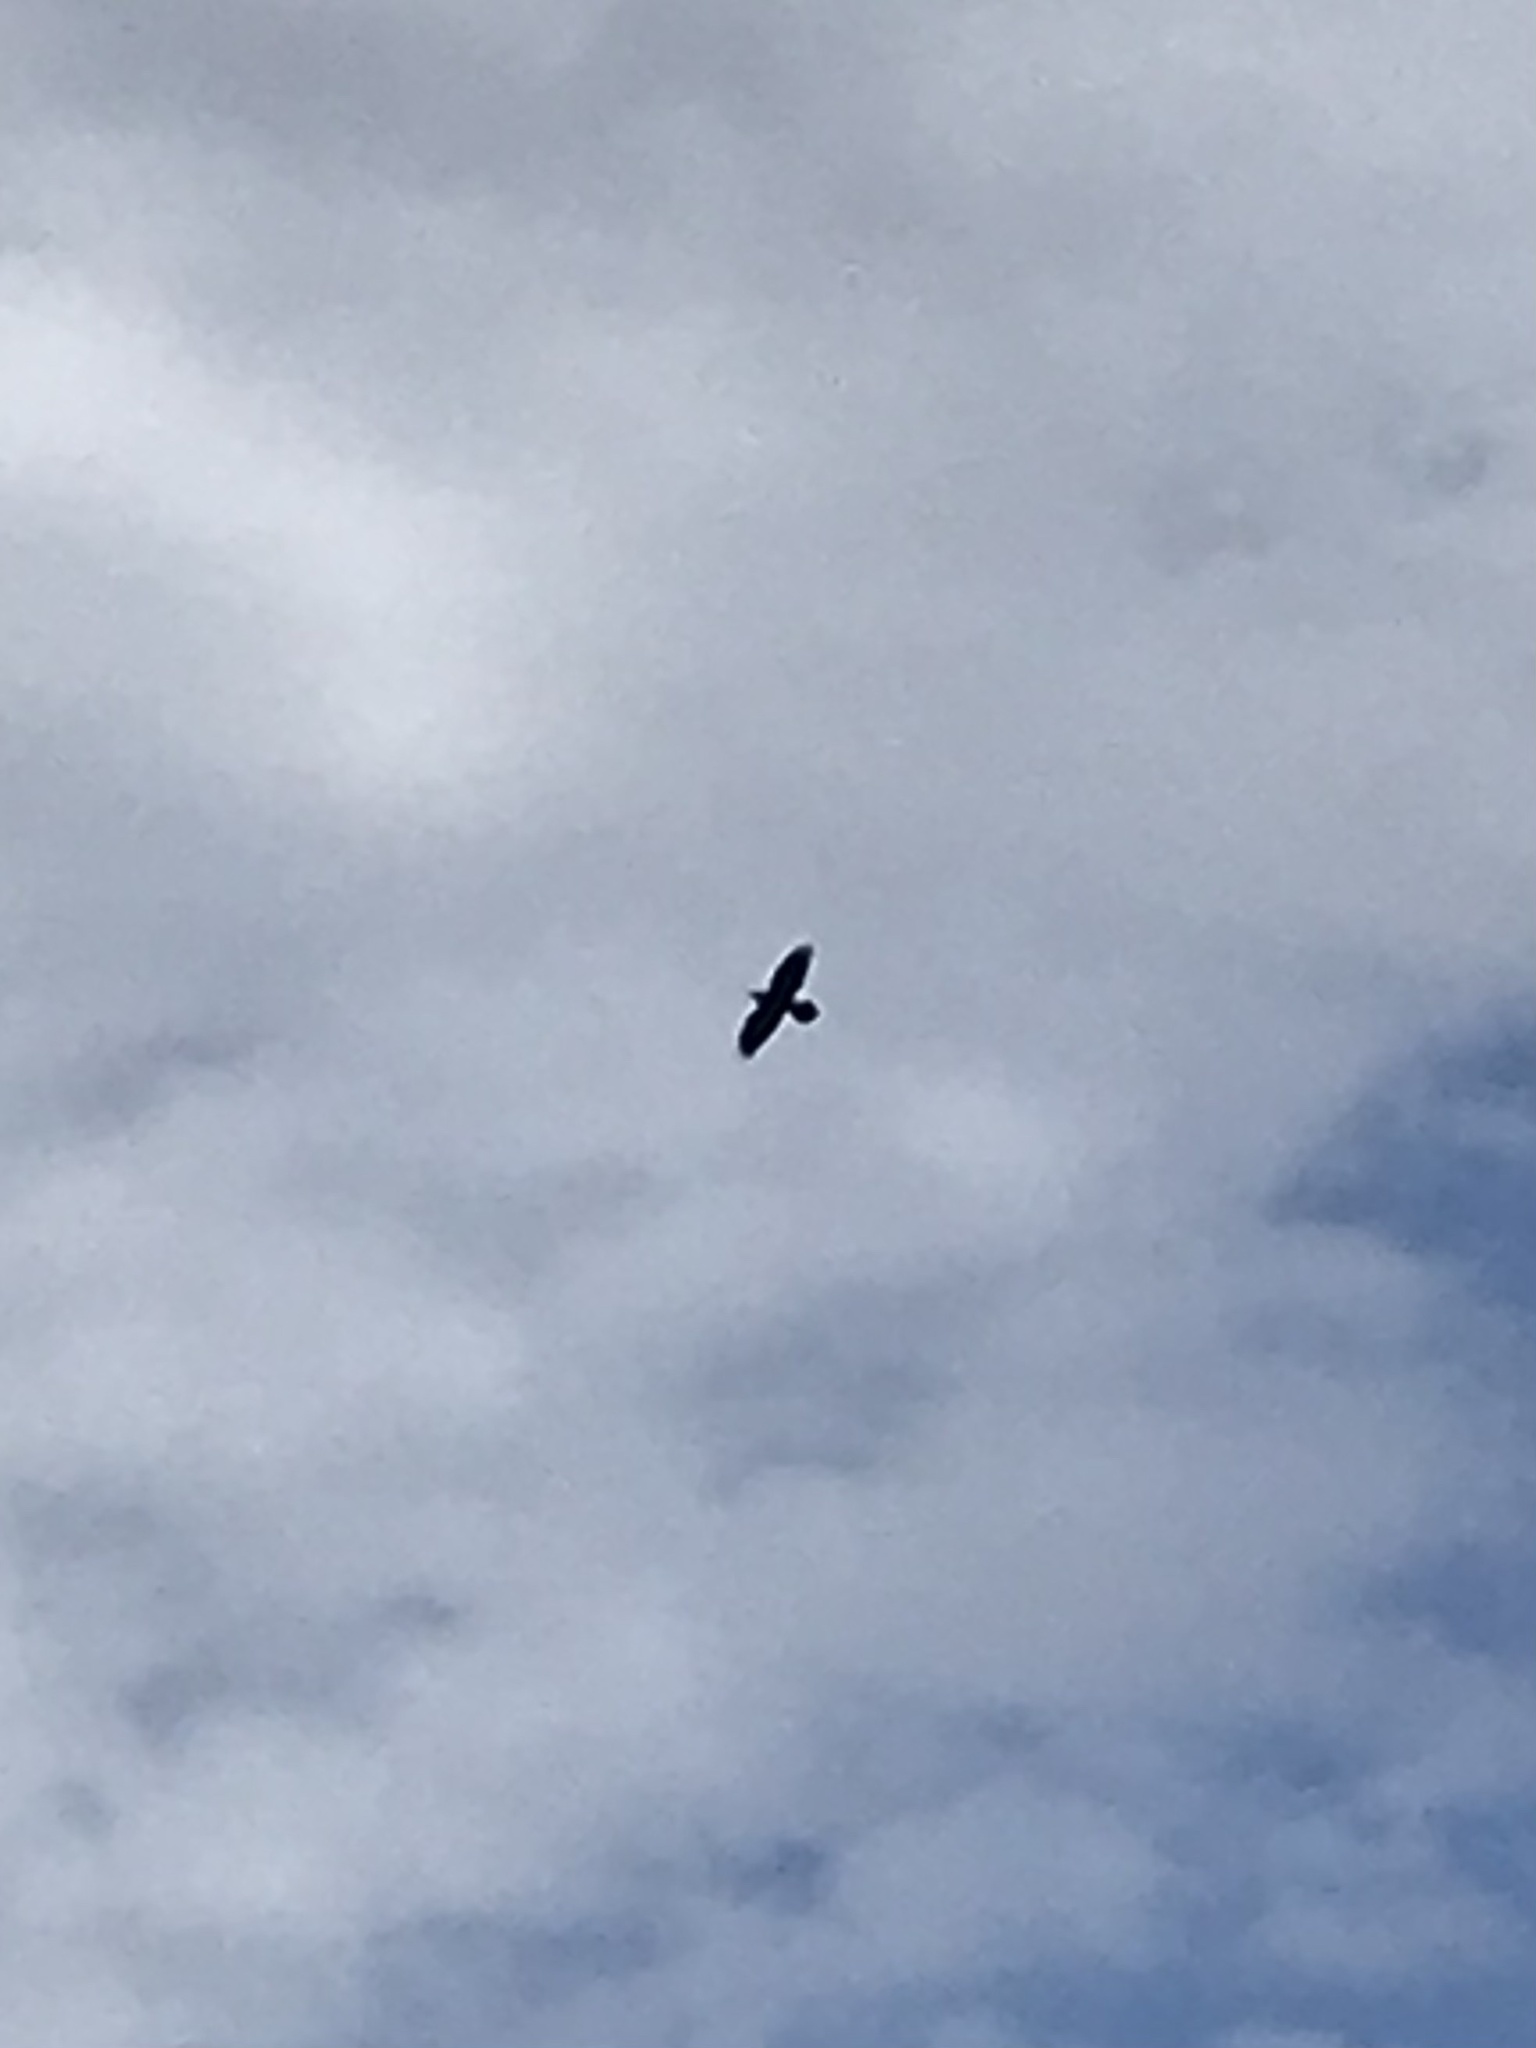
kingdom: Animalia
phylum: Chordata
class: Aves
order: Passeriformes
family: Corvidae
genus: Corvus
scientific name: Corvus corax
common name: Common raven
